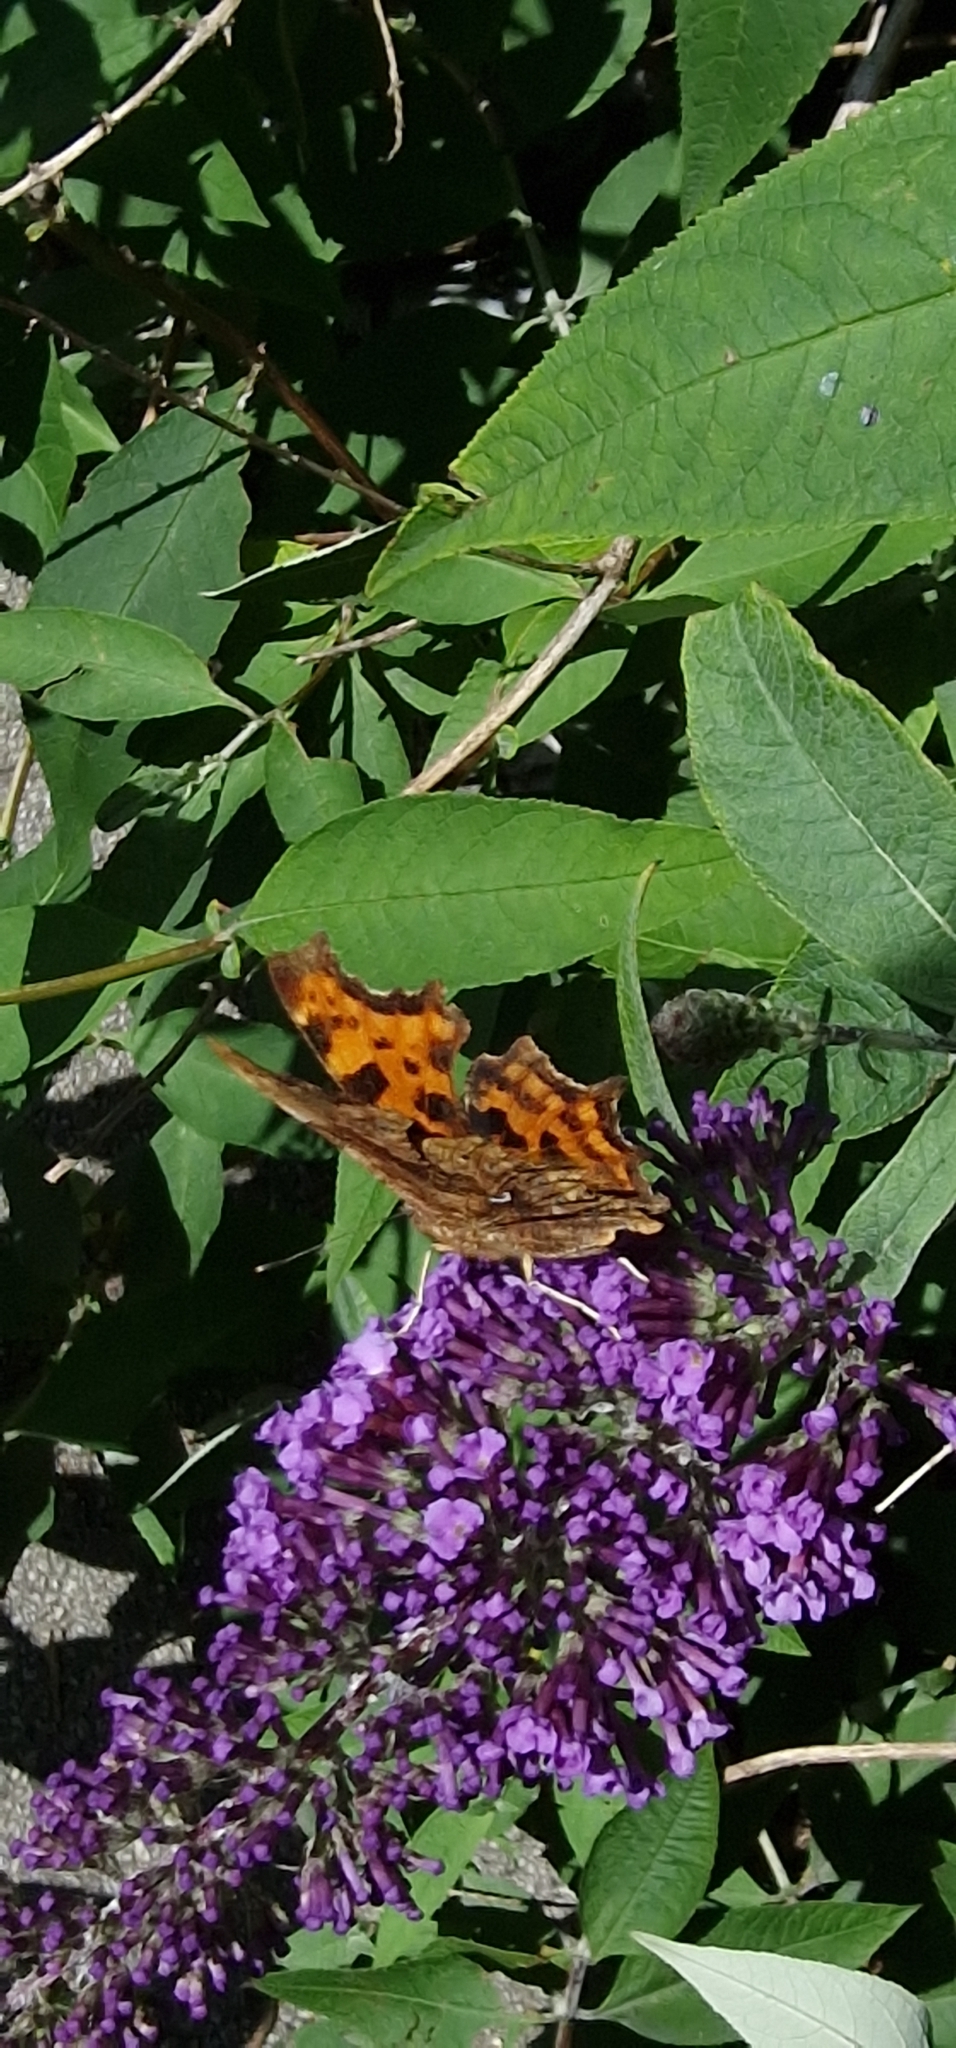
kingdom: Animalia
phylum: Arthropoda
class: Insecta
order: Lepidoptera
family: Nymphalidae
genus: Polygonia
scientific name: Polygonia c-album
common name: Comma
